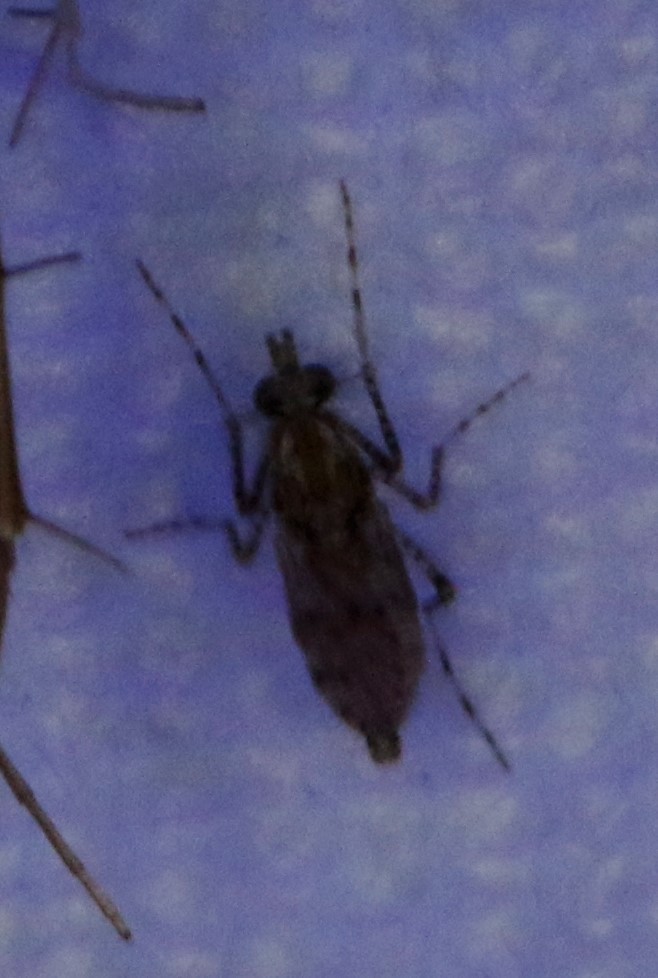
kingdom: Animalia
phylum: Arthropoda
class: Insecta
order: Diptera
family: Chaoboridae
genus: Chaoborus
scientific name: Chaoborus punctipennis
